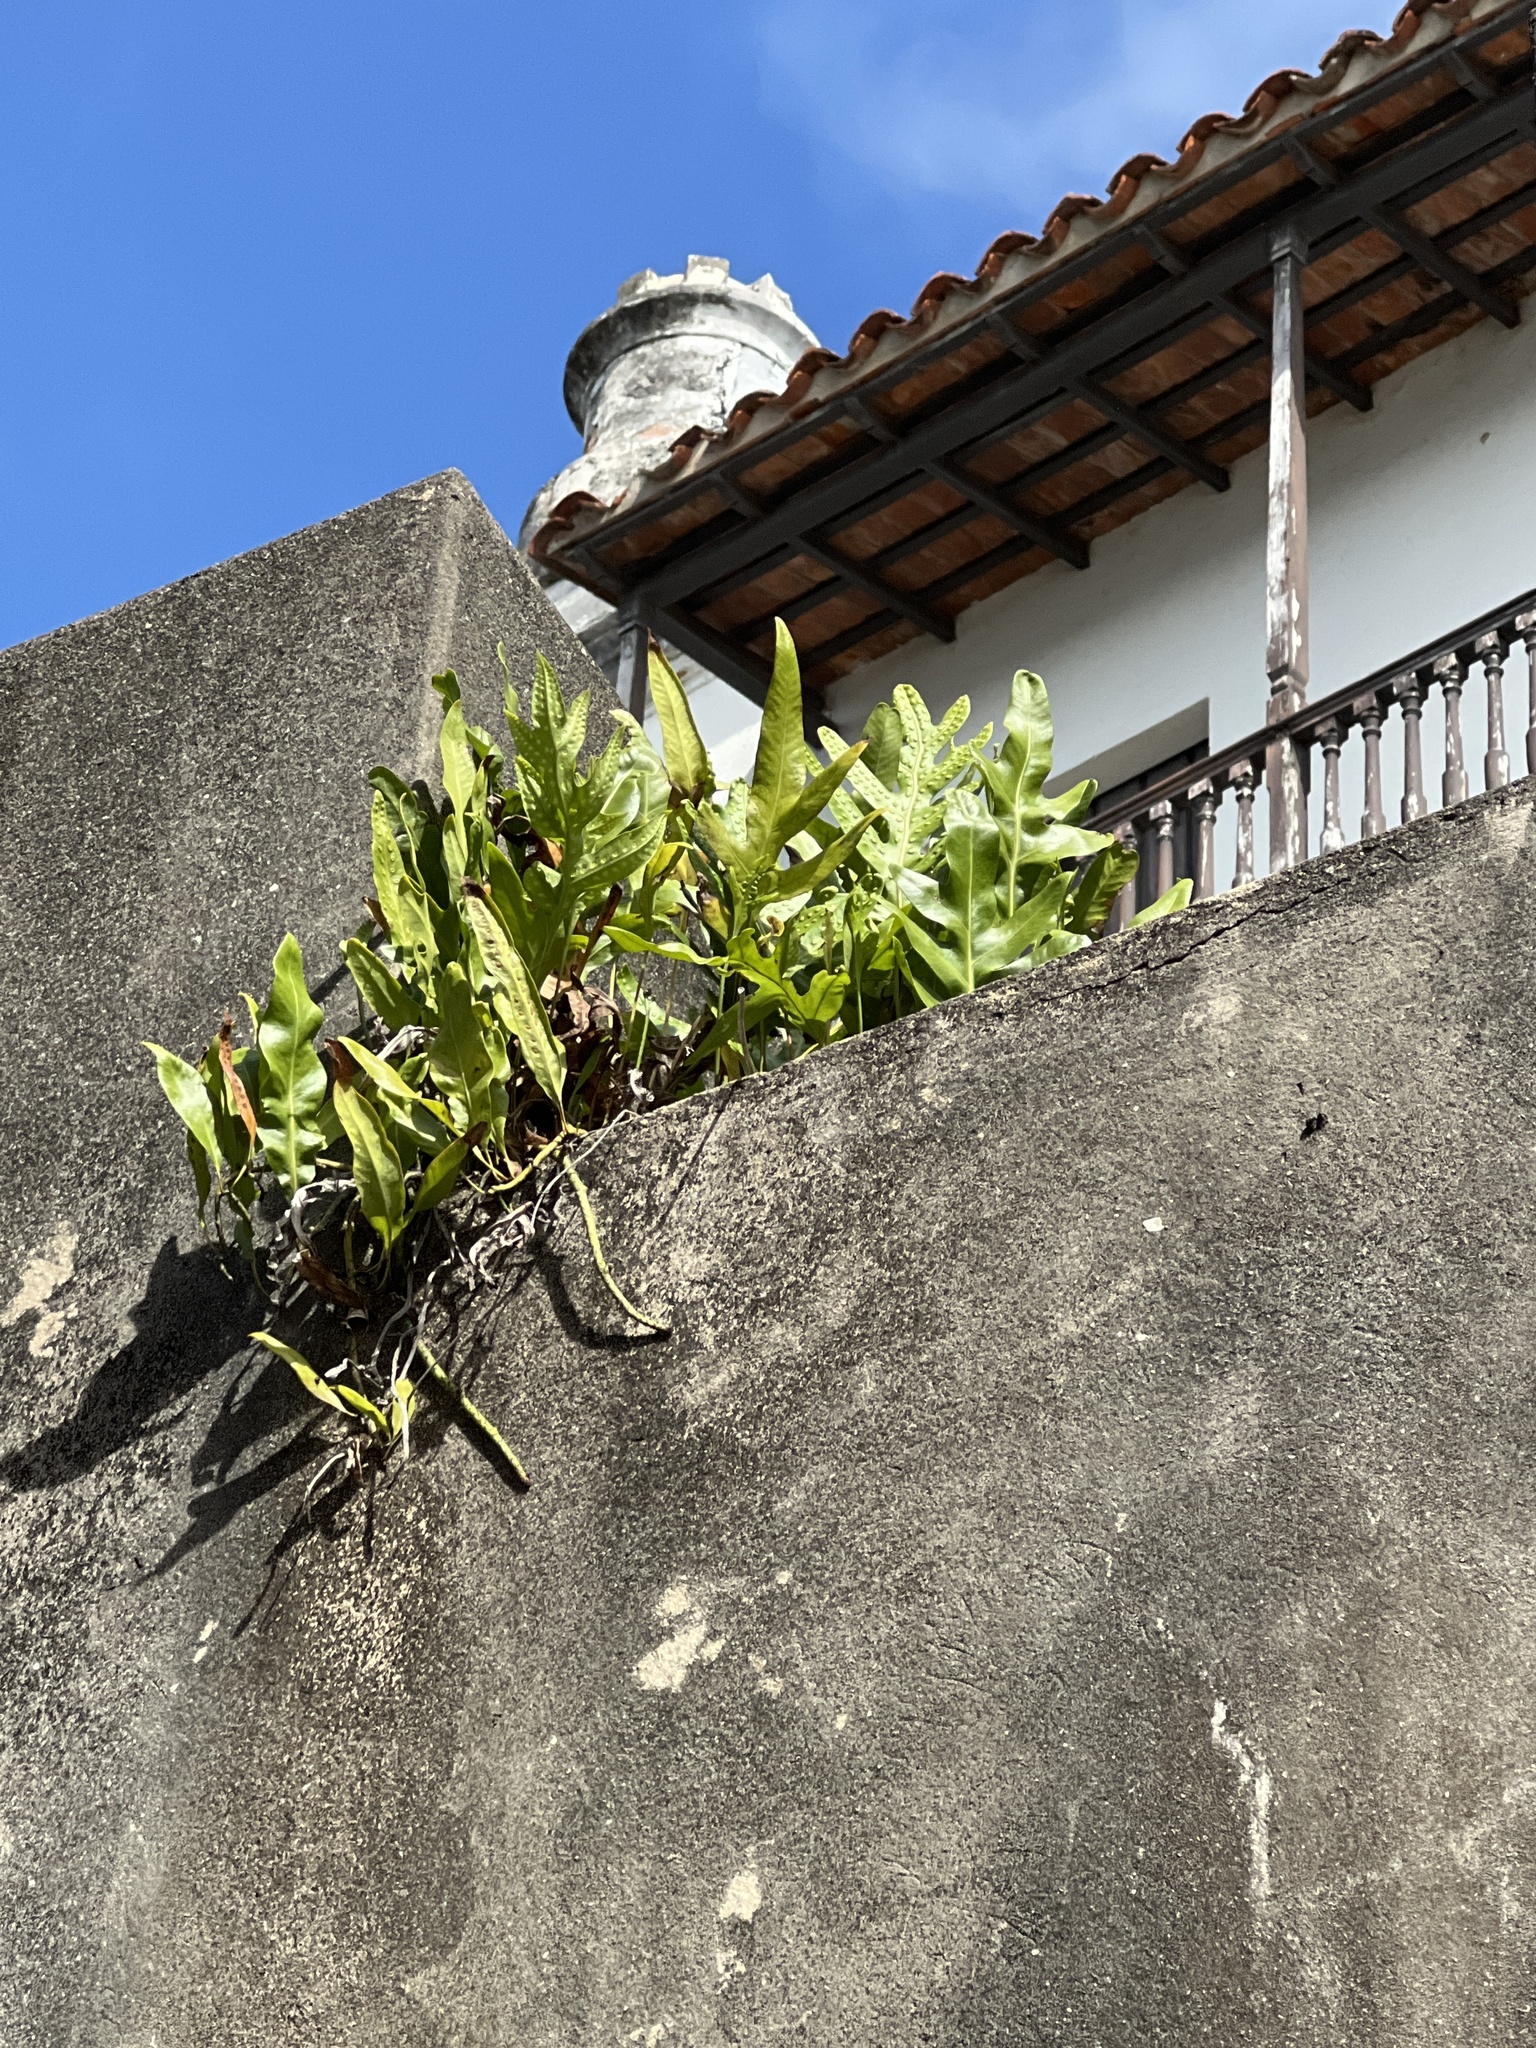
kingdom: Plantae
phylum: Tracheophyta
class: Polypodiopsida
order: Polypodiales
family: Polypodiaceae
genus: Microsorum
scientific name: Microsorum grossum
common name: Musk fern
